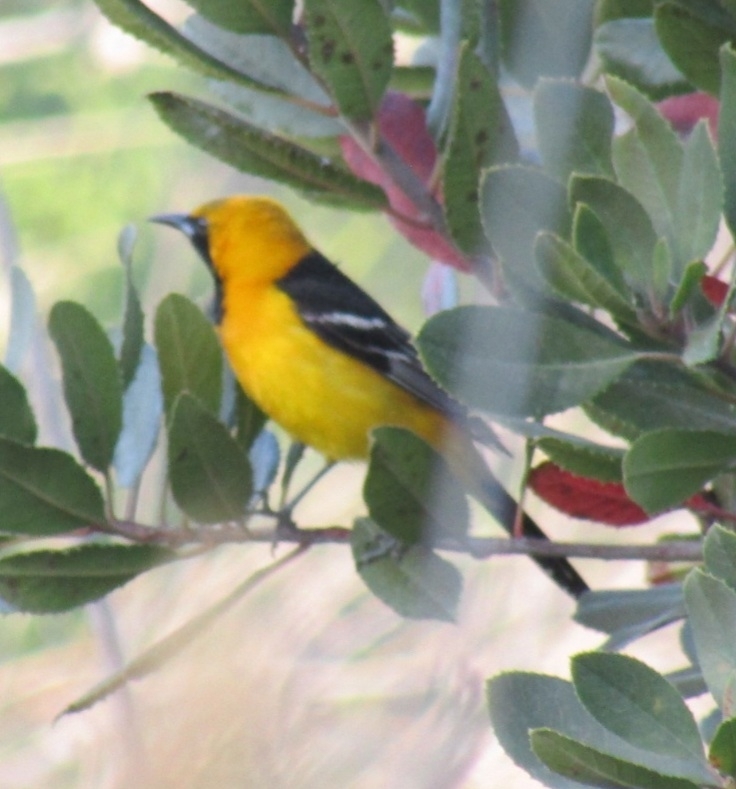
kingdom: Animalia
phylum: Chordata
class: Aves
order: Passeriformes
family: Icteridae
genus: Icterus
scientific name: Icterus cucullatus
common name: Hooded oriole
